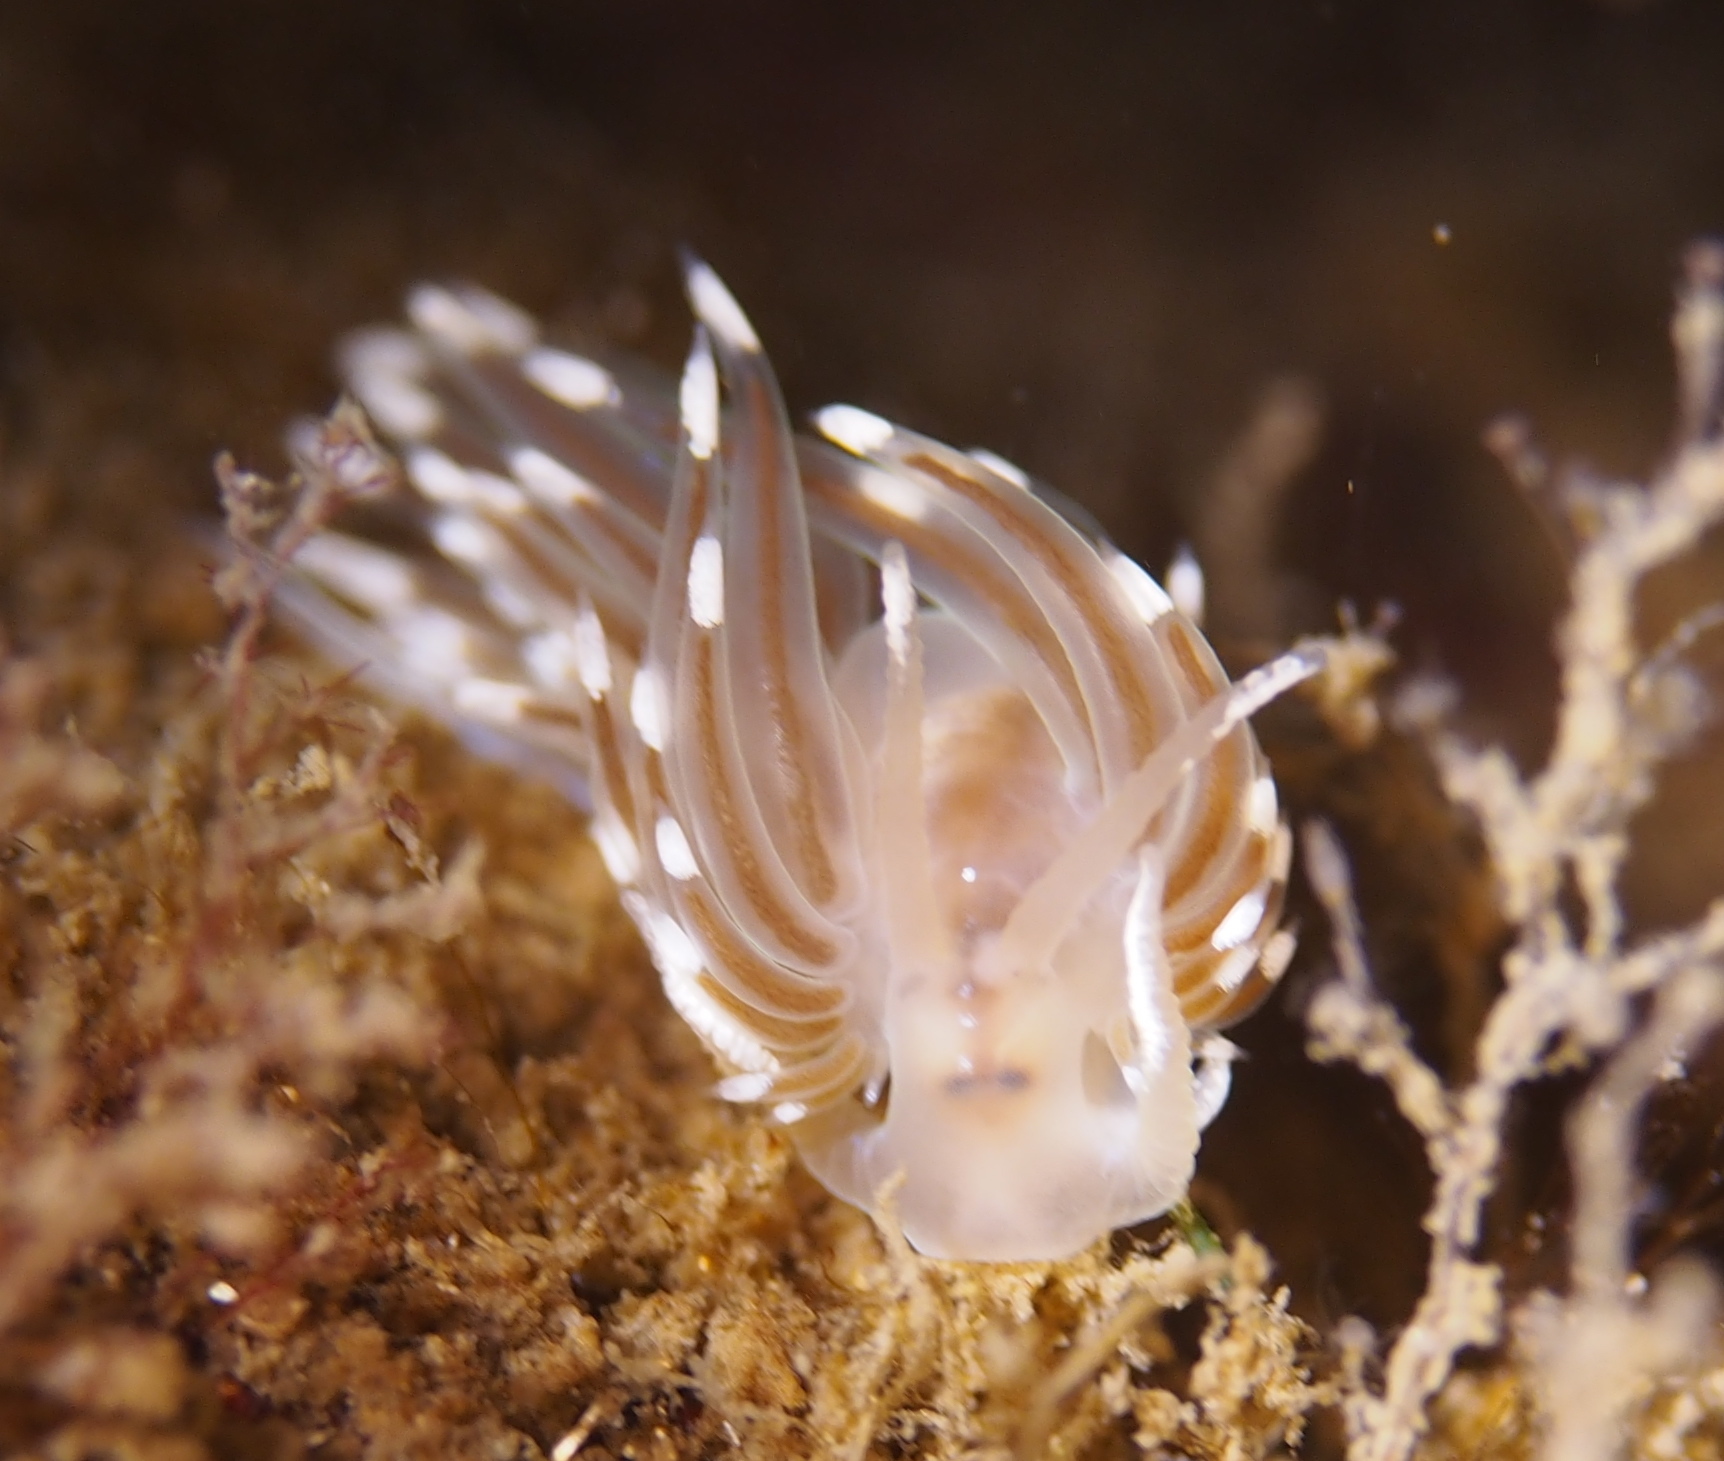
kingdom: Animalia
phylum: Mollusca
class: Gastropoda
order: Nudibranchia
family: Facelinidae
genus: Facelina
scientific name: Facelina bostoniensis
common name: Boston facelina
